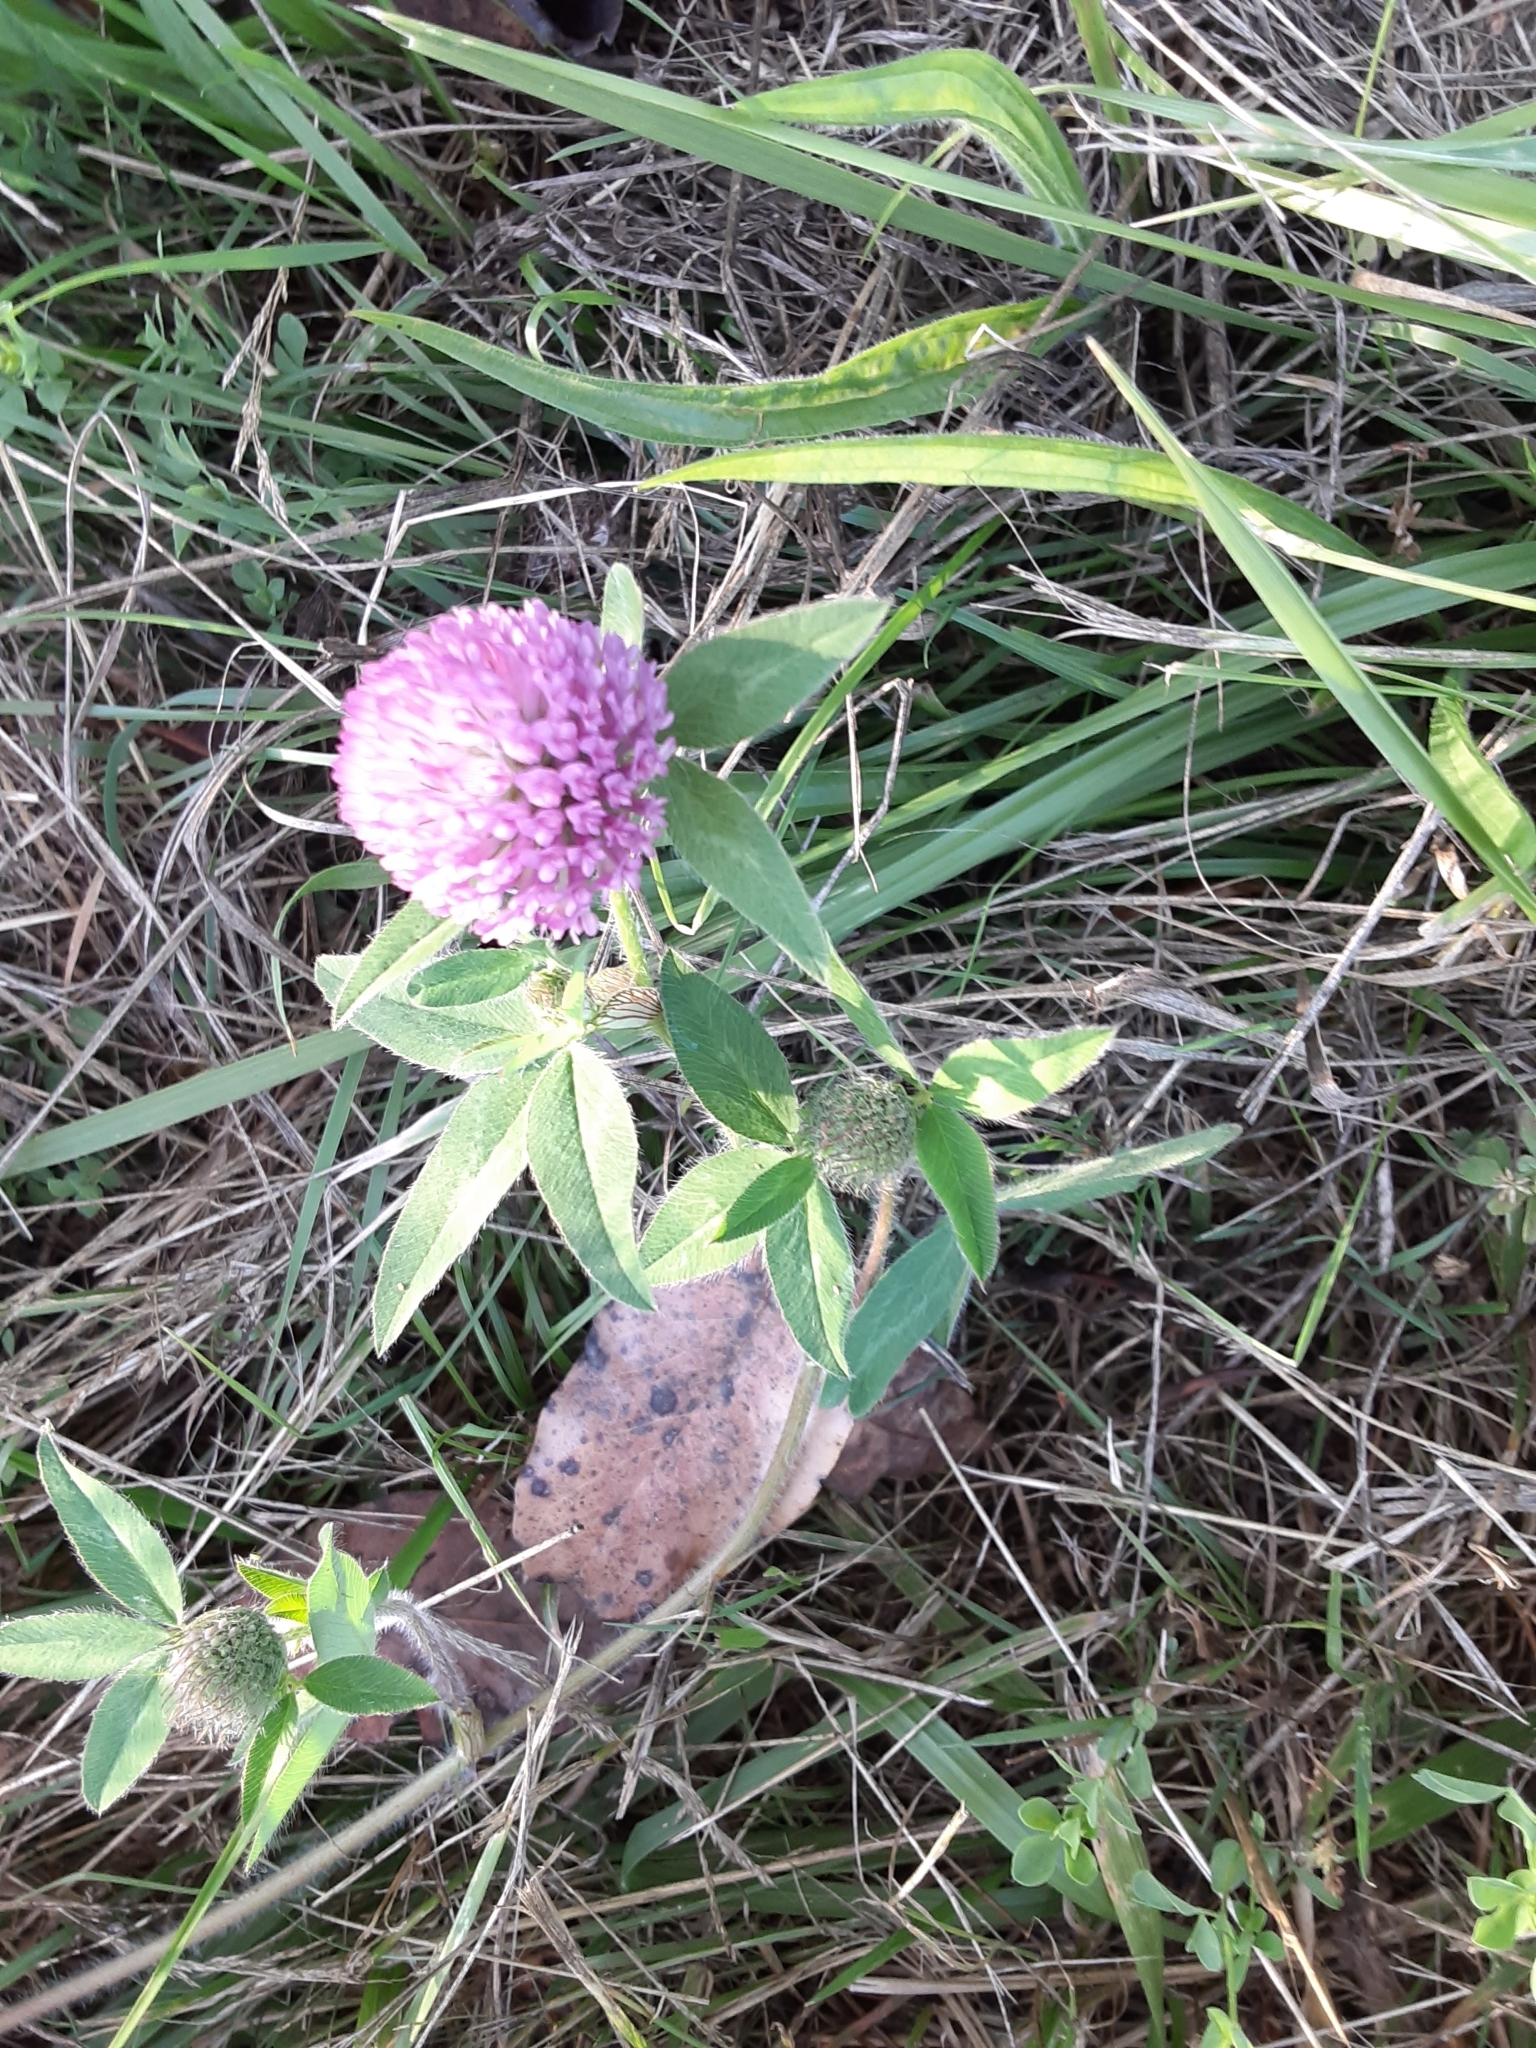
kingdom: Plantae
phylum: Tracheophyta
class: Magnoliopsida
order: Fabales
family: Fabaceae
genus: Trifolium
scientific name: Trifolium pratense
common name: Red clover
